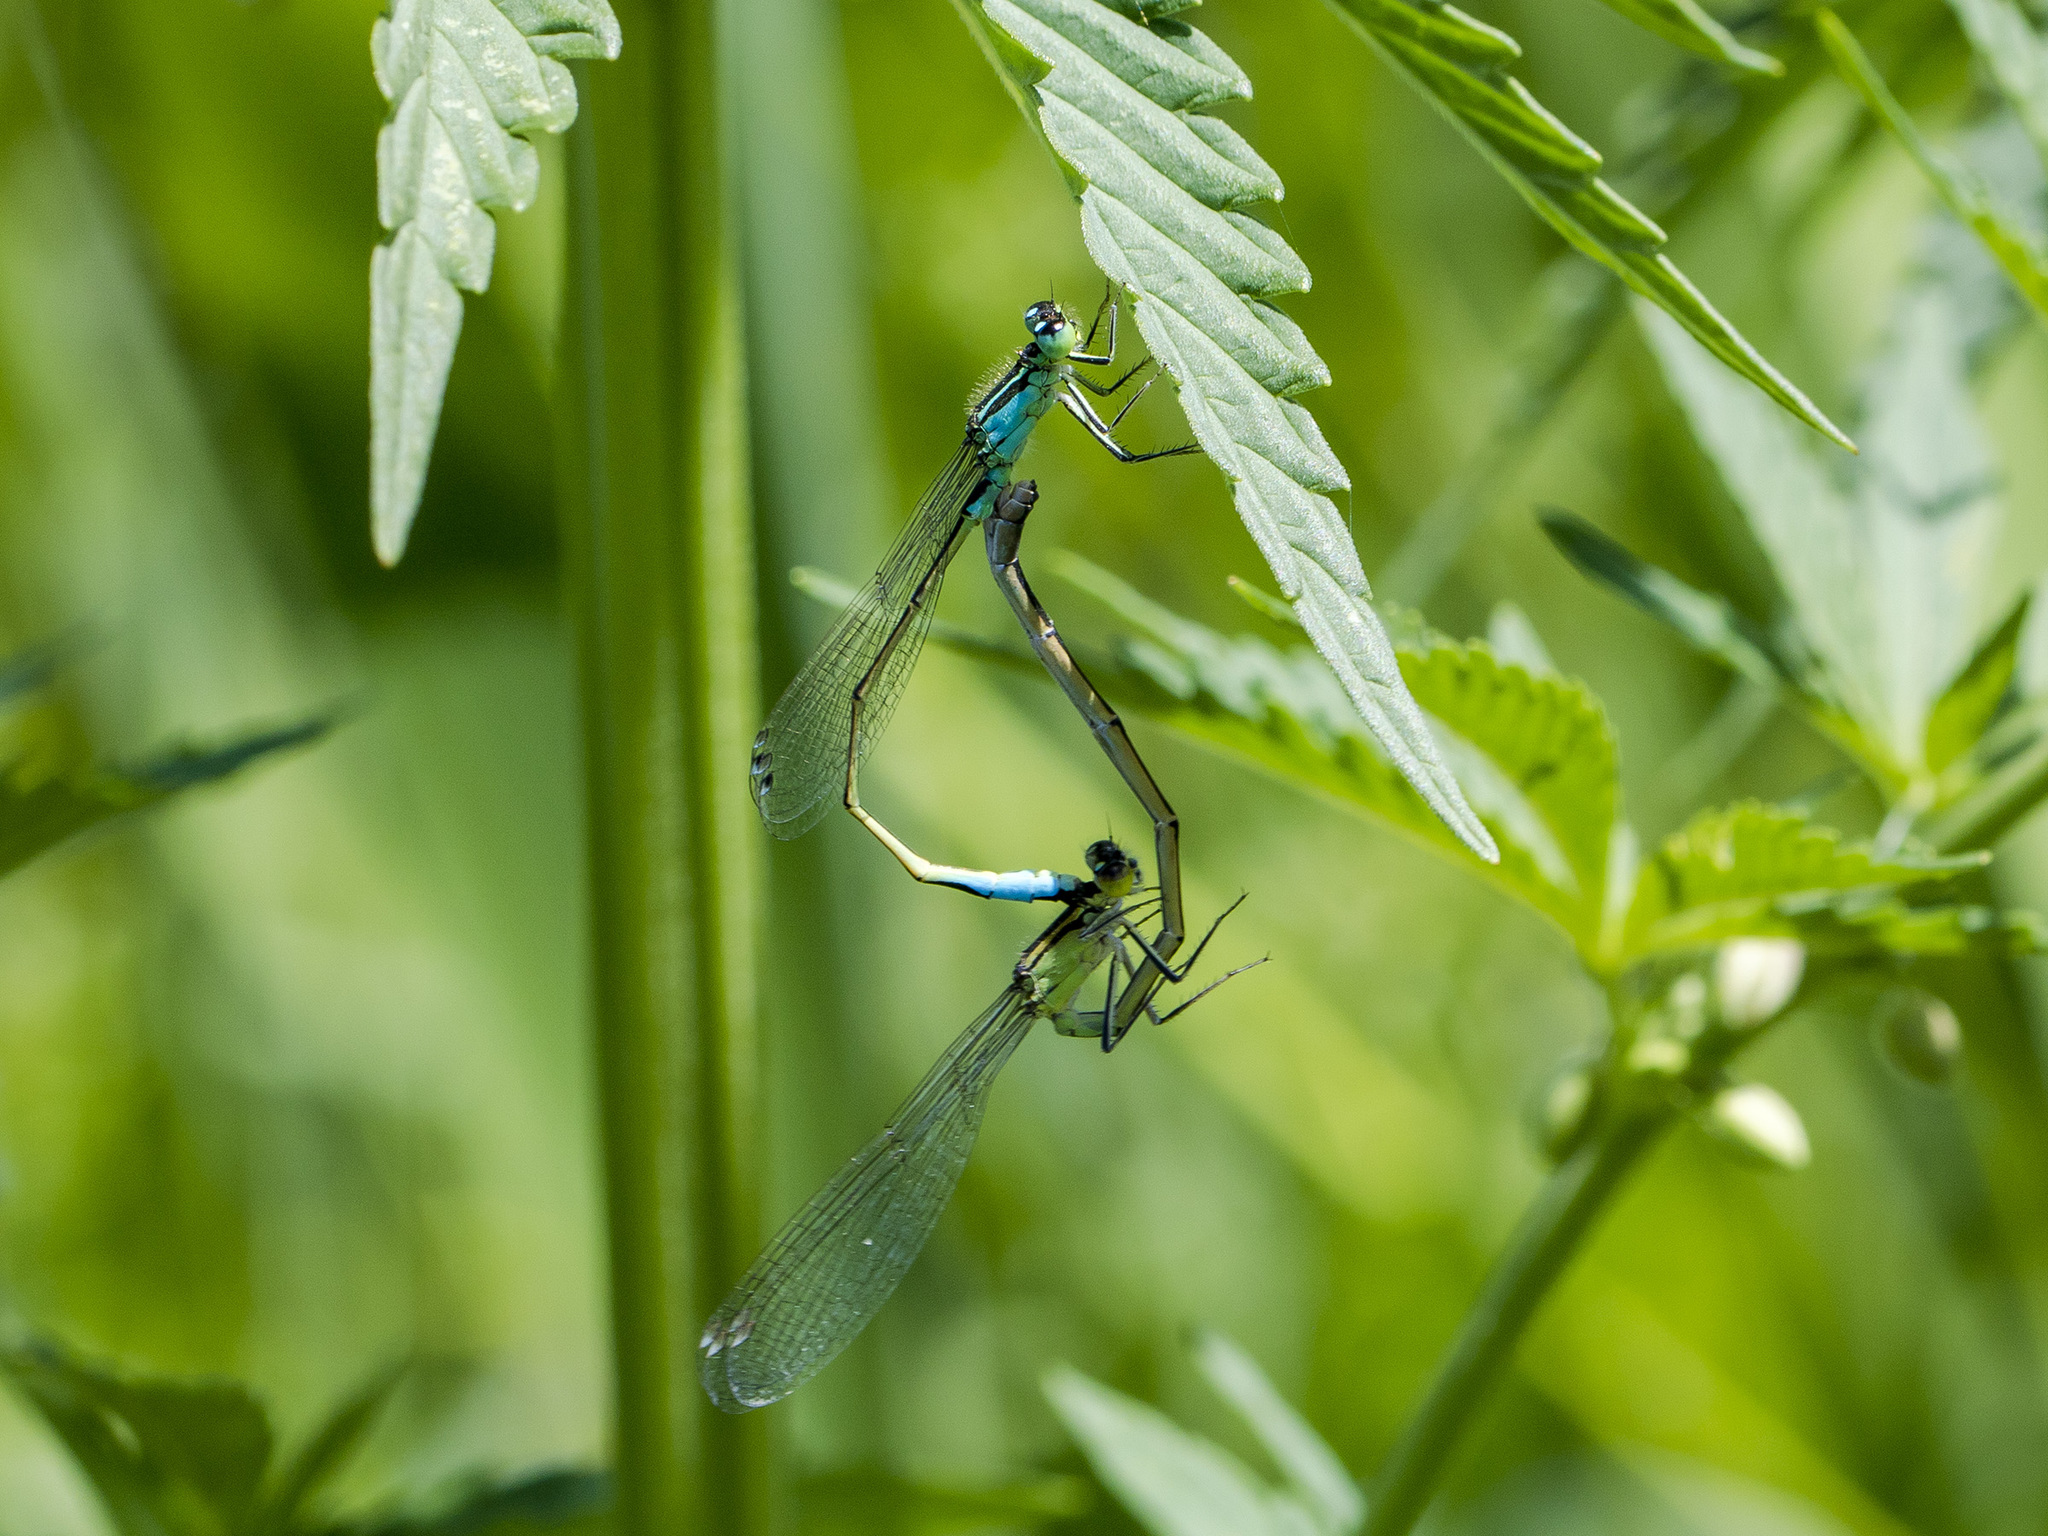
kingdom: Animalia
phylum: Arthropoda
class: Insecta
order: Odonata
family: Coenagrionidae
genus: Ischnura
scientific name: Ischnura elegans
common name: Blue-tailed damselfly
